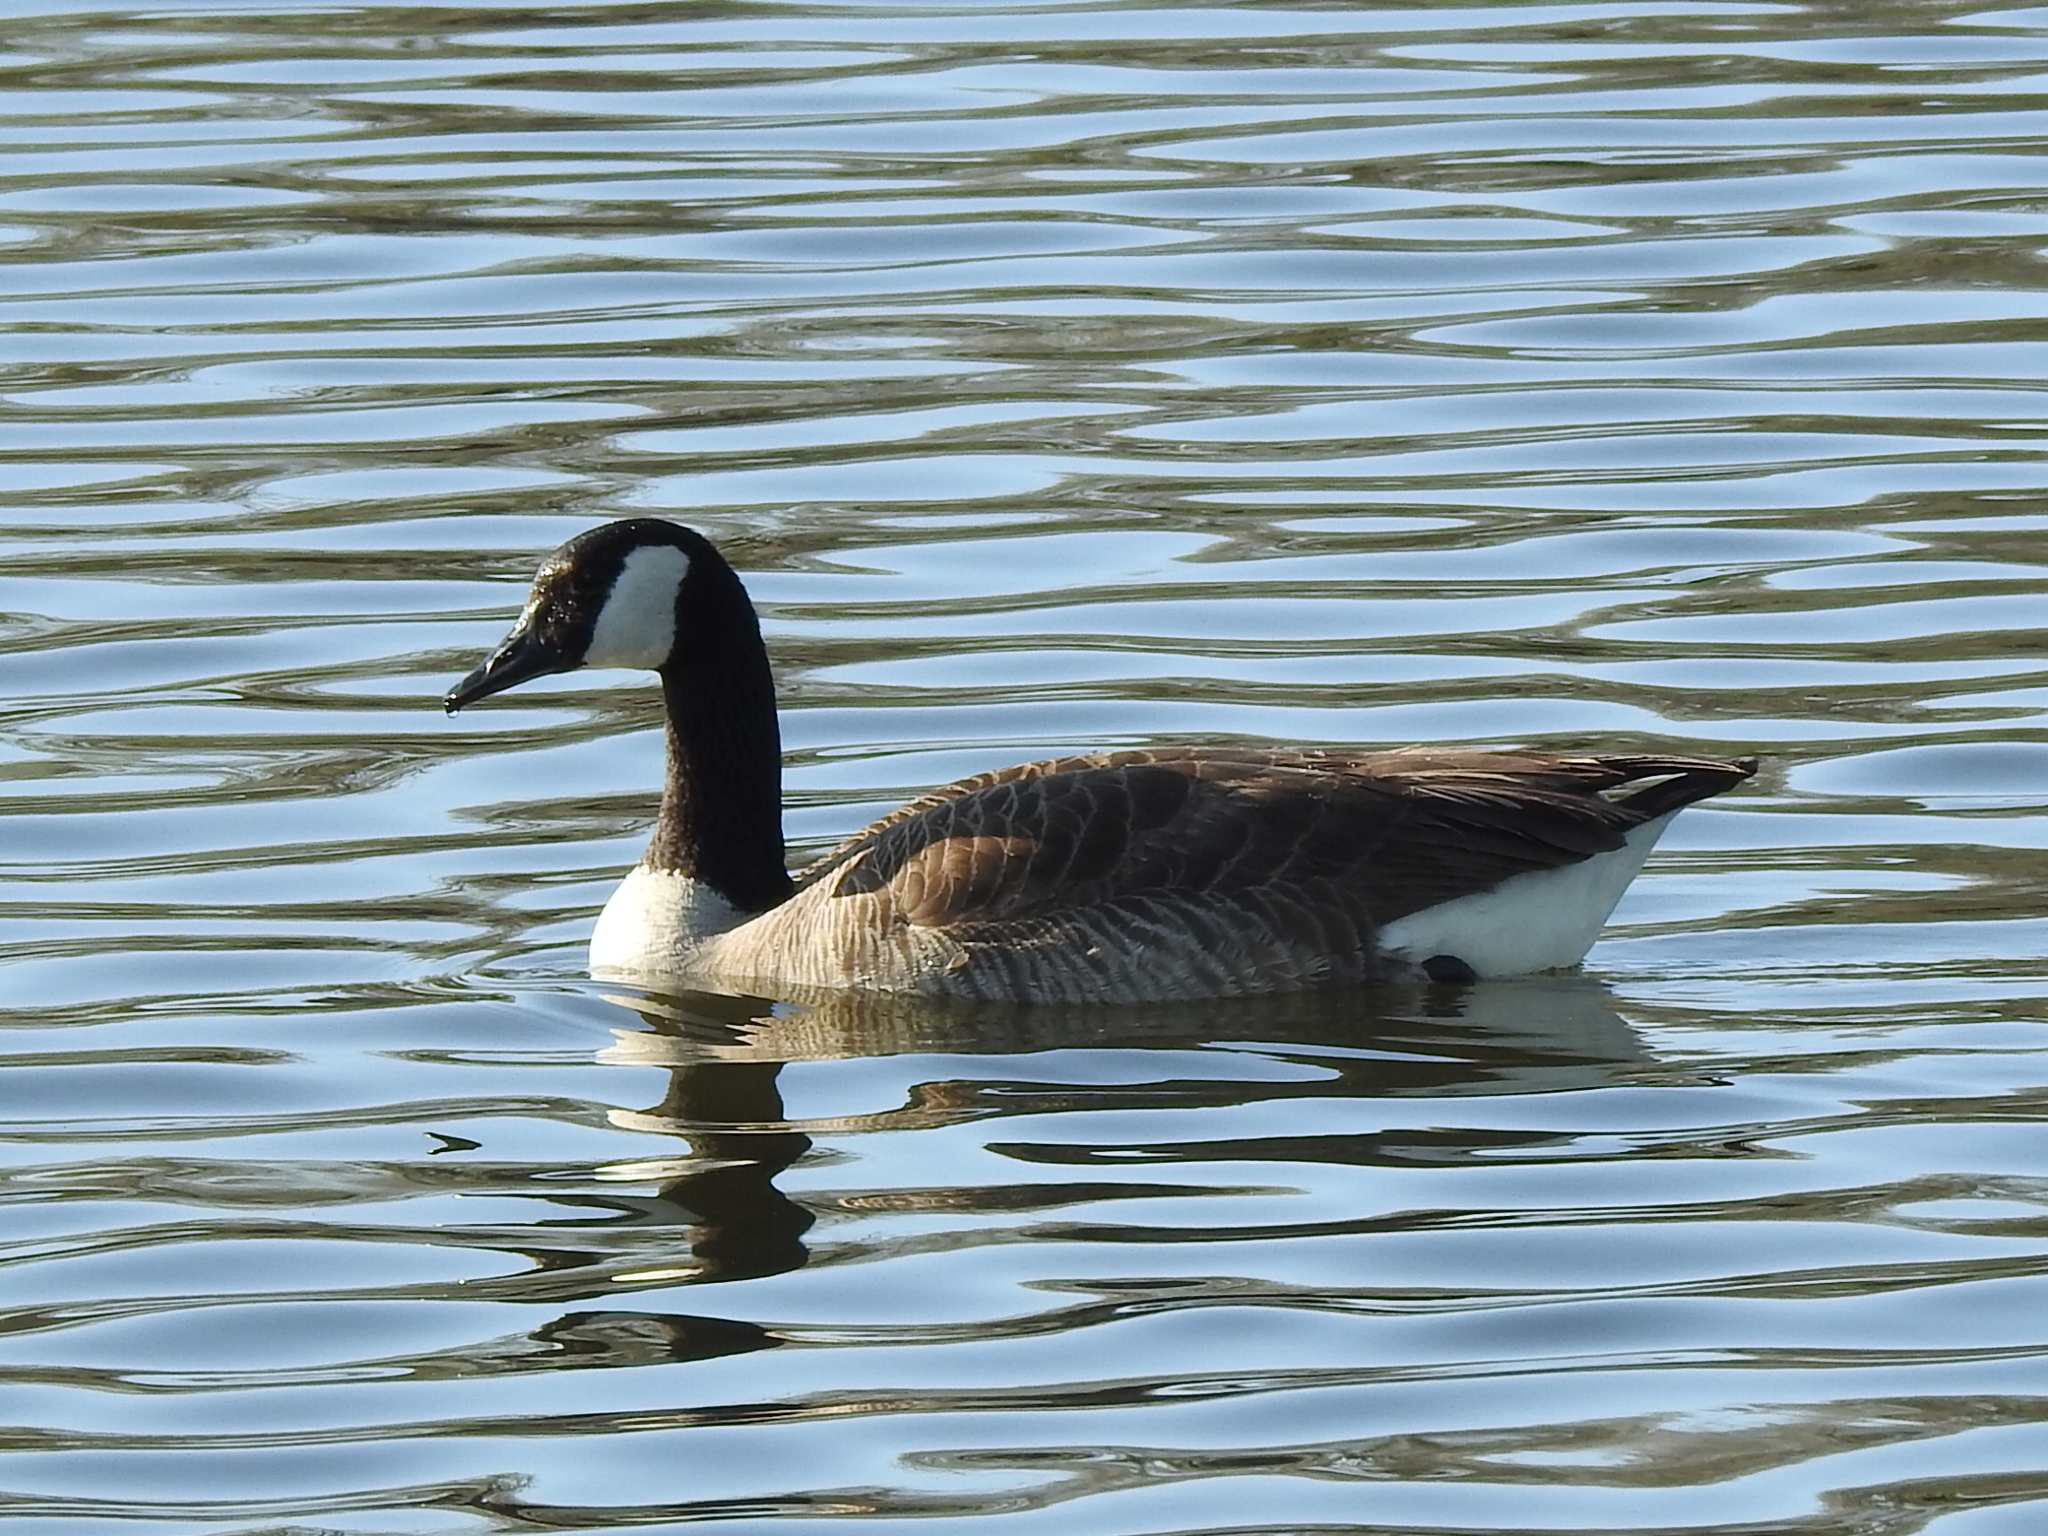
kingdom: Animalia
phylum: Chordata
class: Aves
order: Anseriformes
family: Anatidae
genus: Branta
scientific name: Branta canadensis
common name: Canada goose
